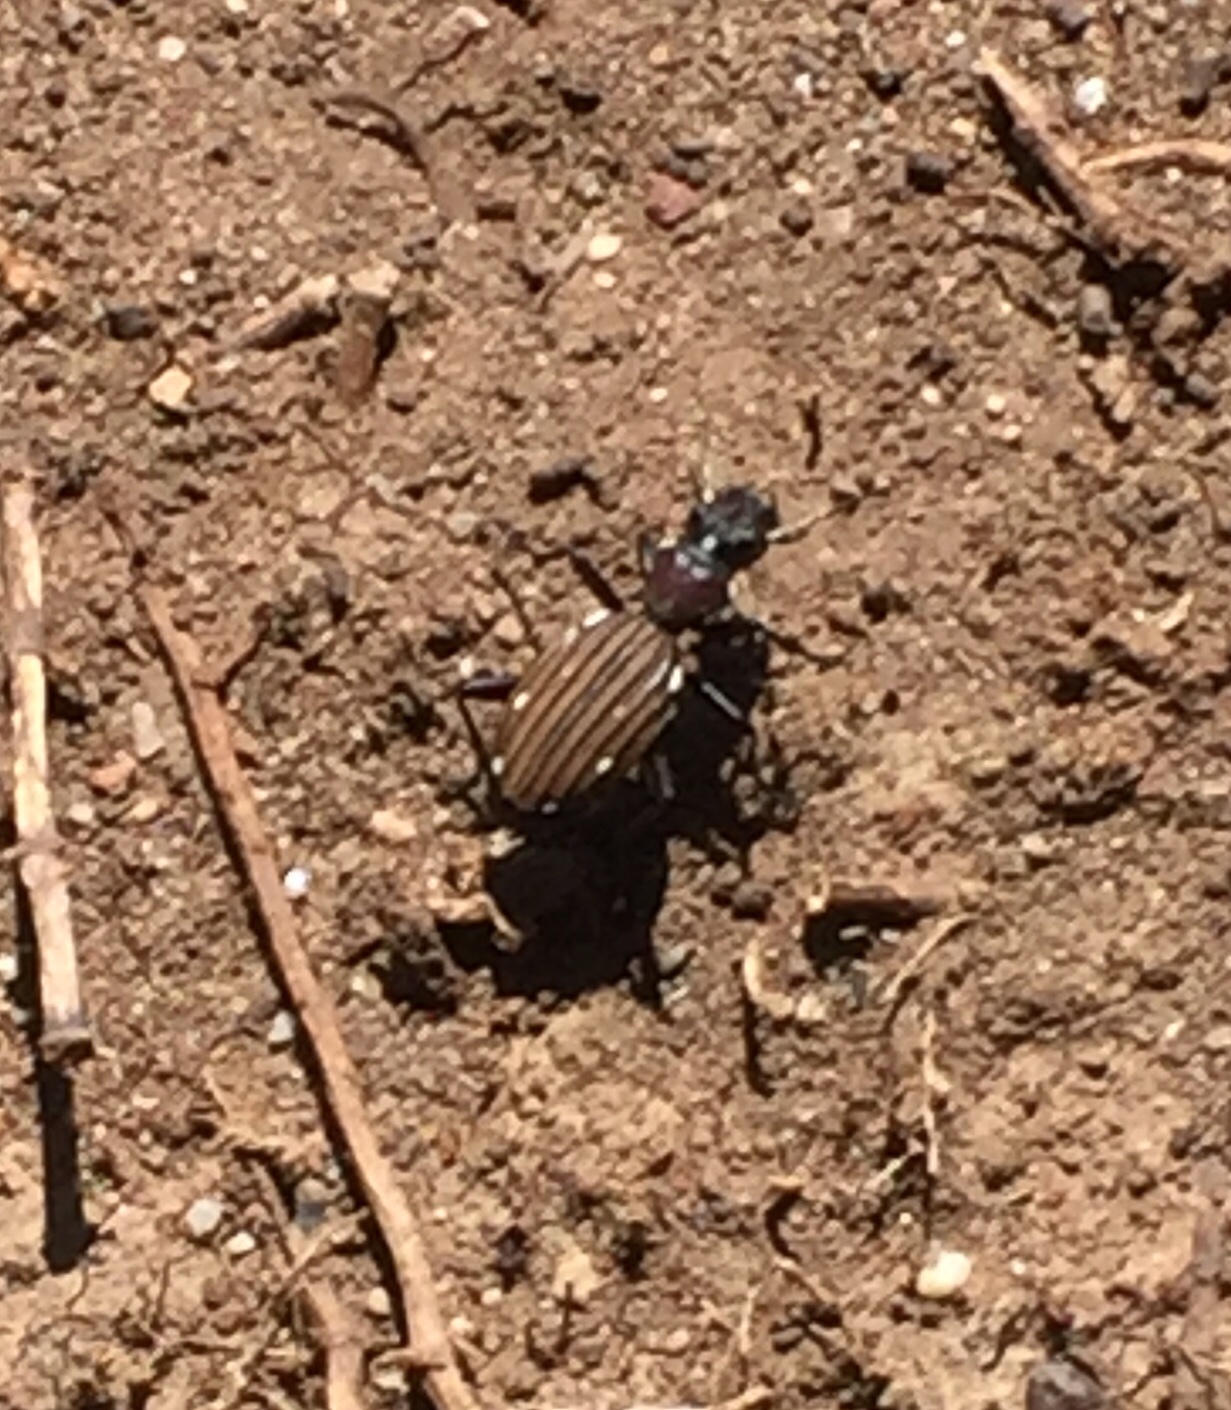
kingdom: Animalia
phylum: Arthropoda
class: Insecta
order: Coleoptera
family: Carabidae
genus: Anthia
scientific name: Anthia decemguttata
